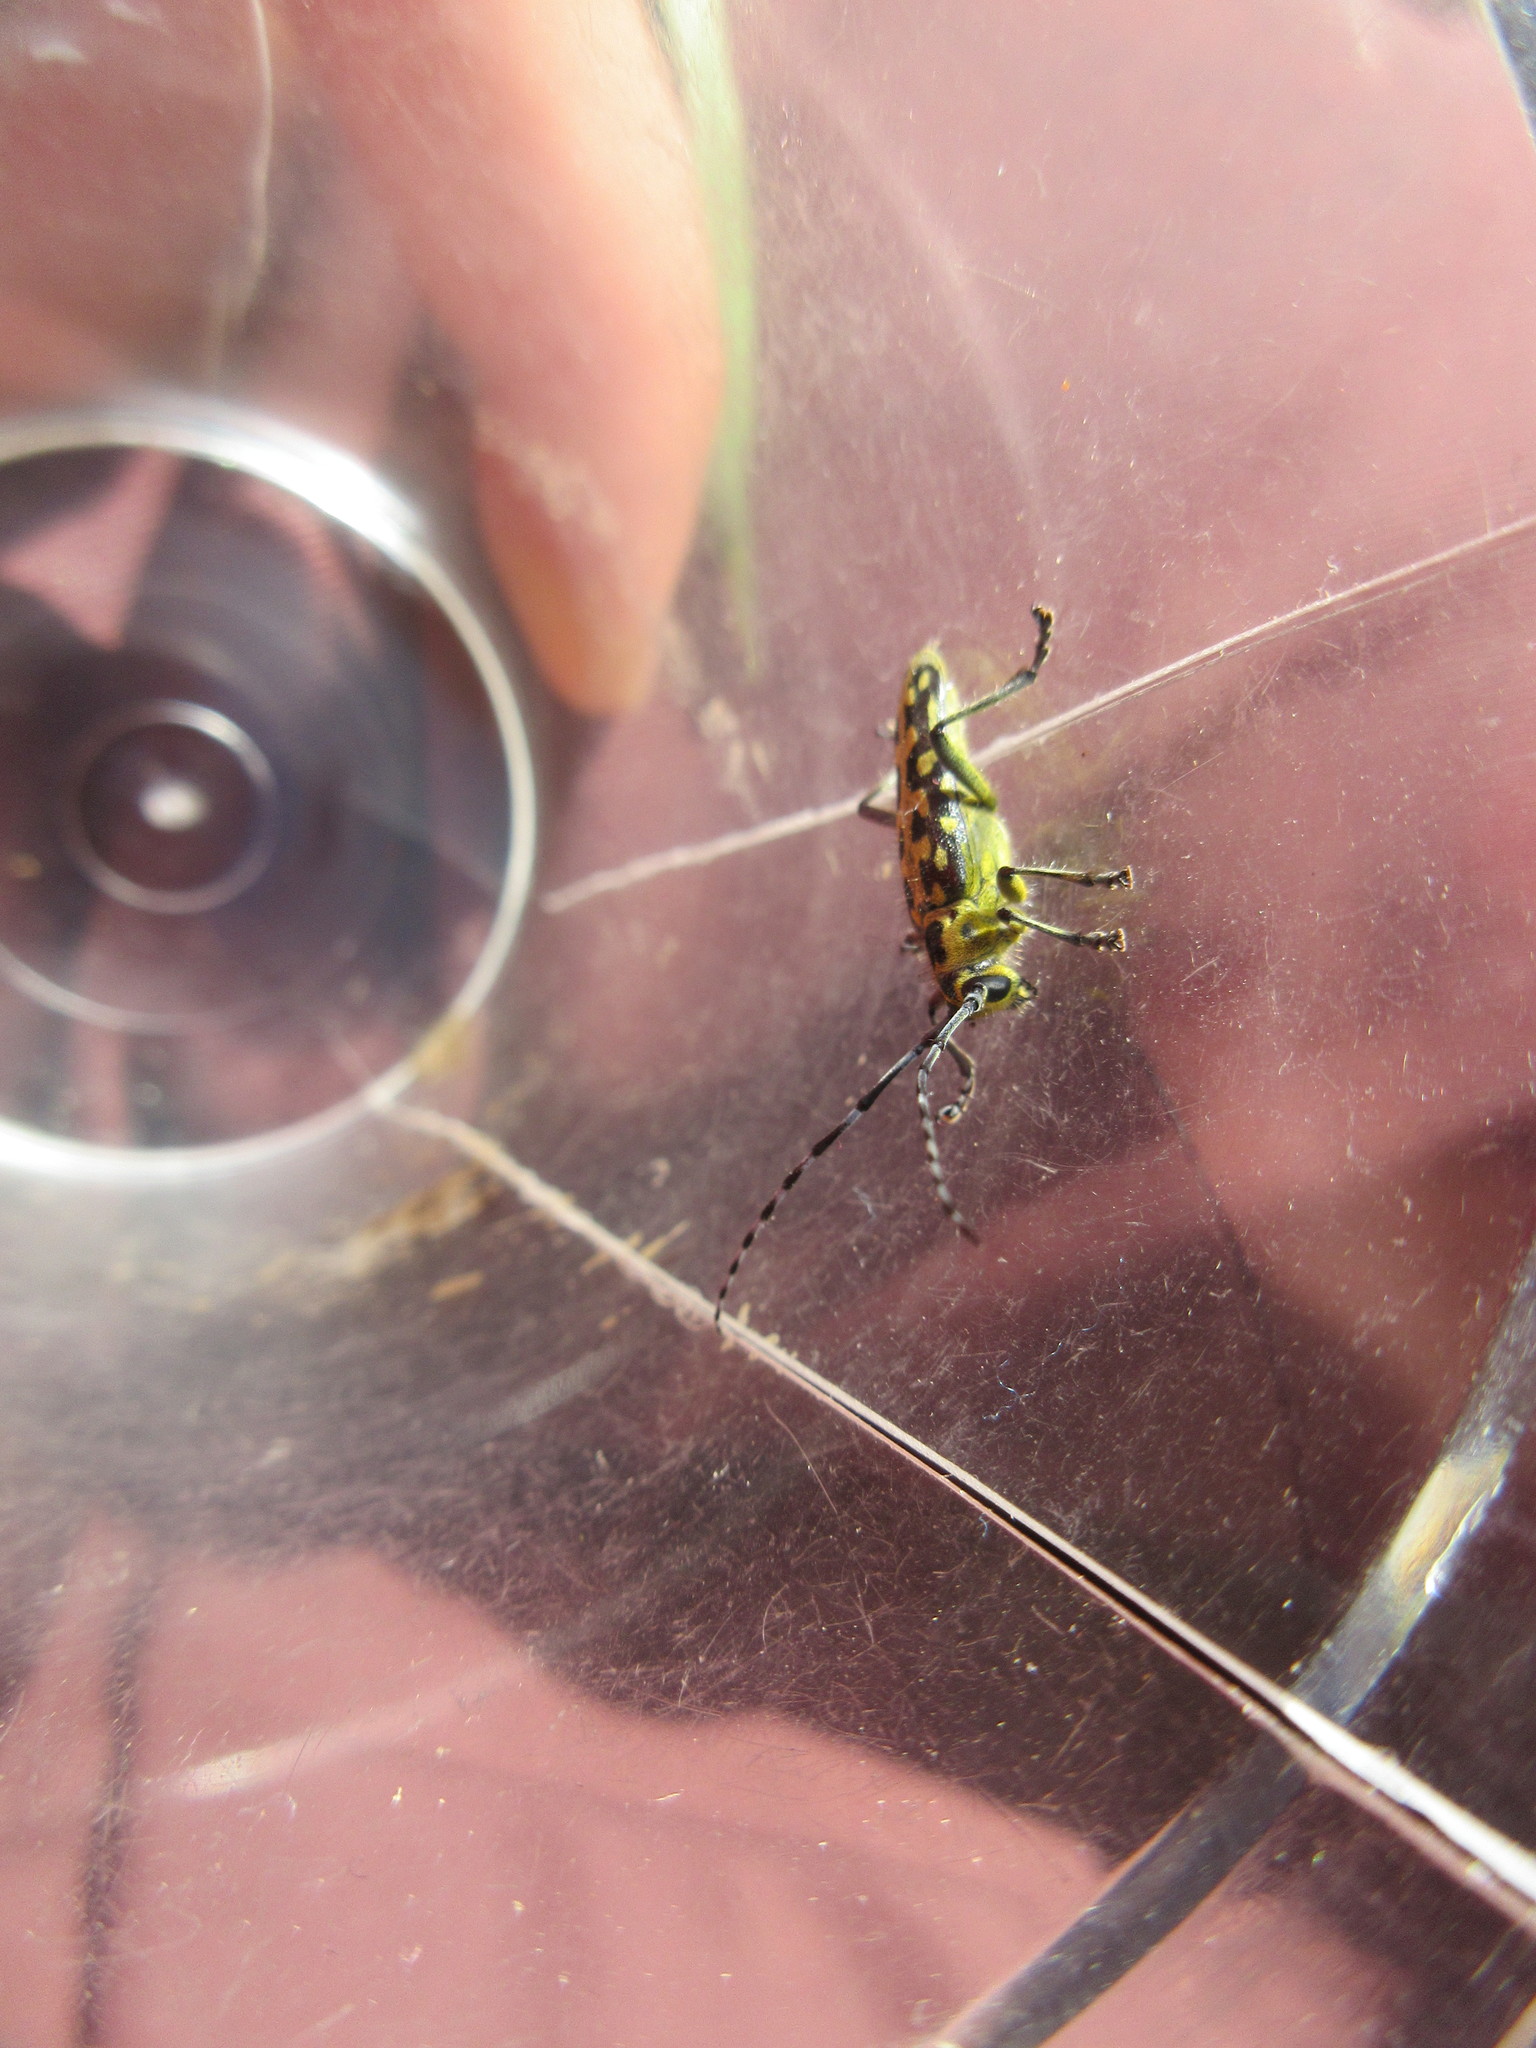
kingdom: Animalia
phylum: Arthropoda
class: Insecta
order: Coleoptera
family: Cerambycidae
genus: Saperda
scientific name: Saperda scalaris
